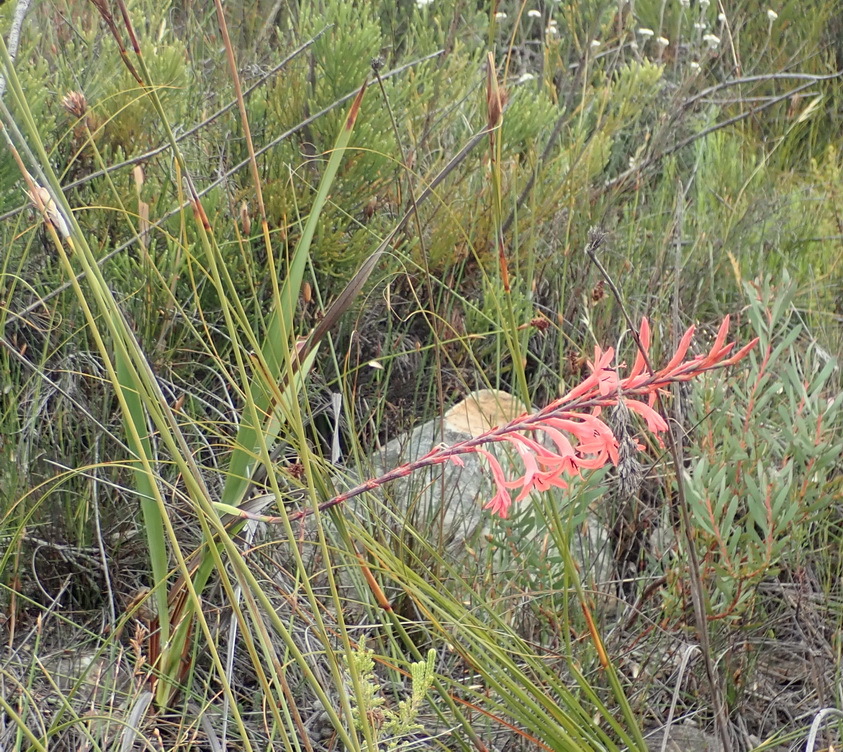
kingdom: Plantae
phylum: Tracheophyta
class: Liliopsida
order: Asparagales
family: Iridaceae
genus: Watsonia
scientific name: Watsonia schlechteri
